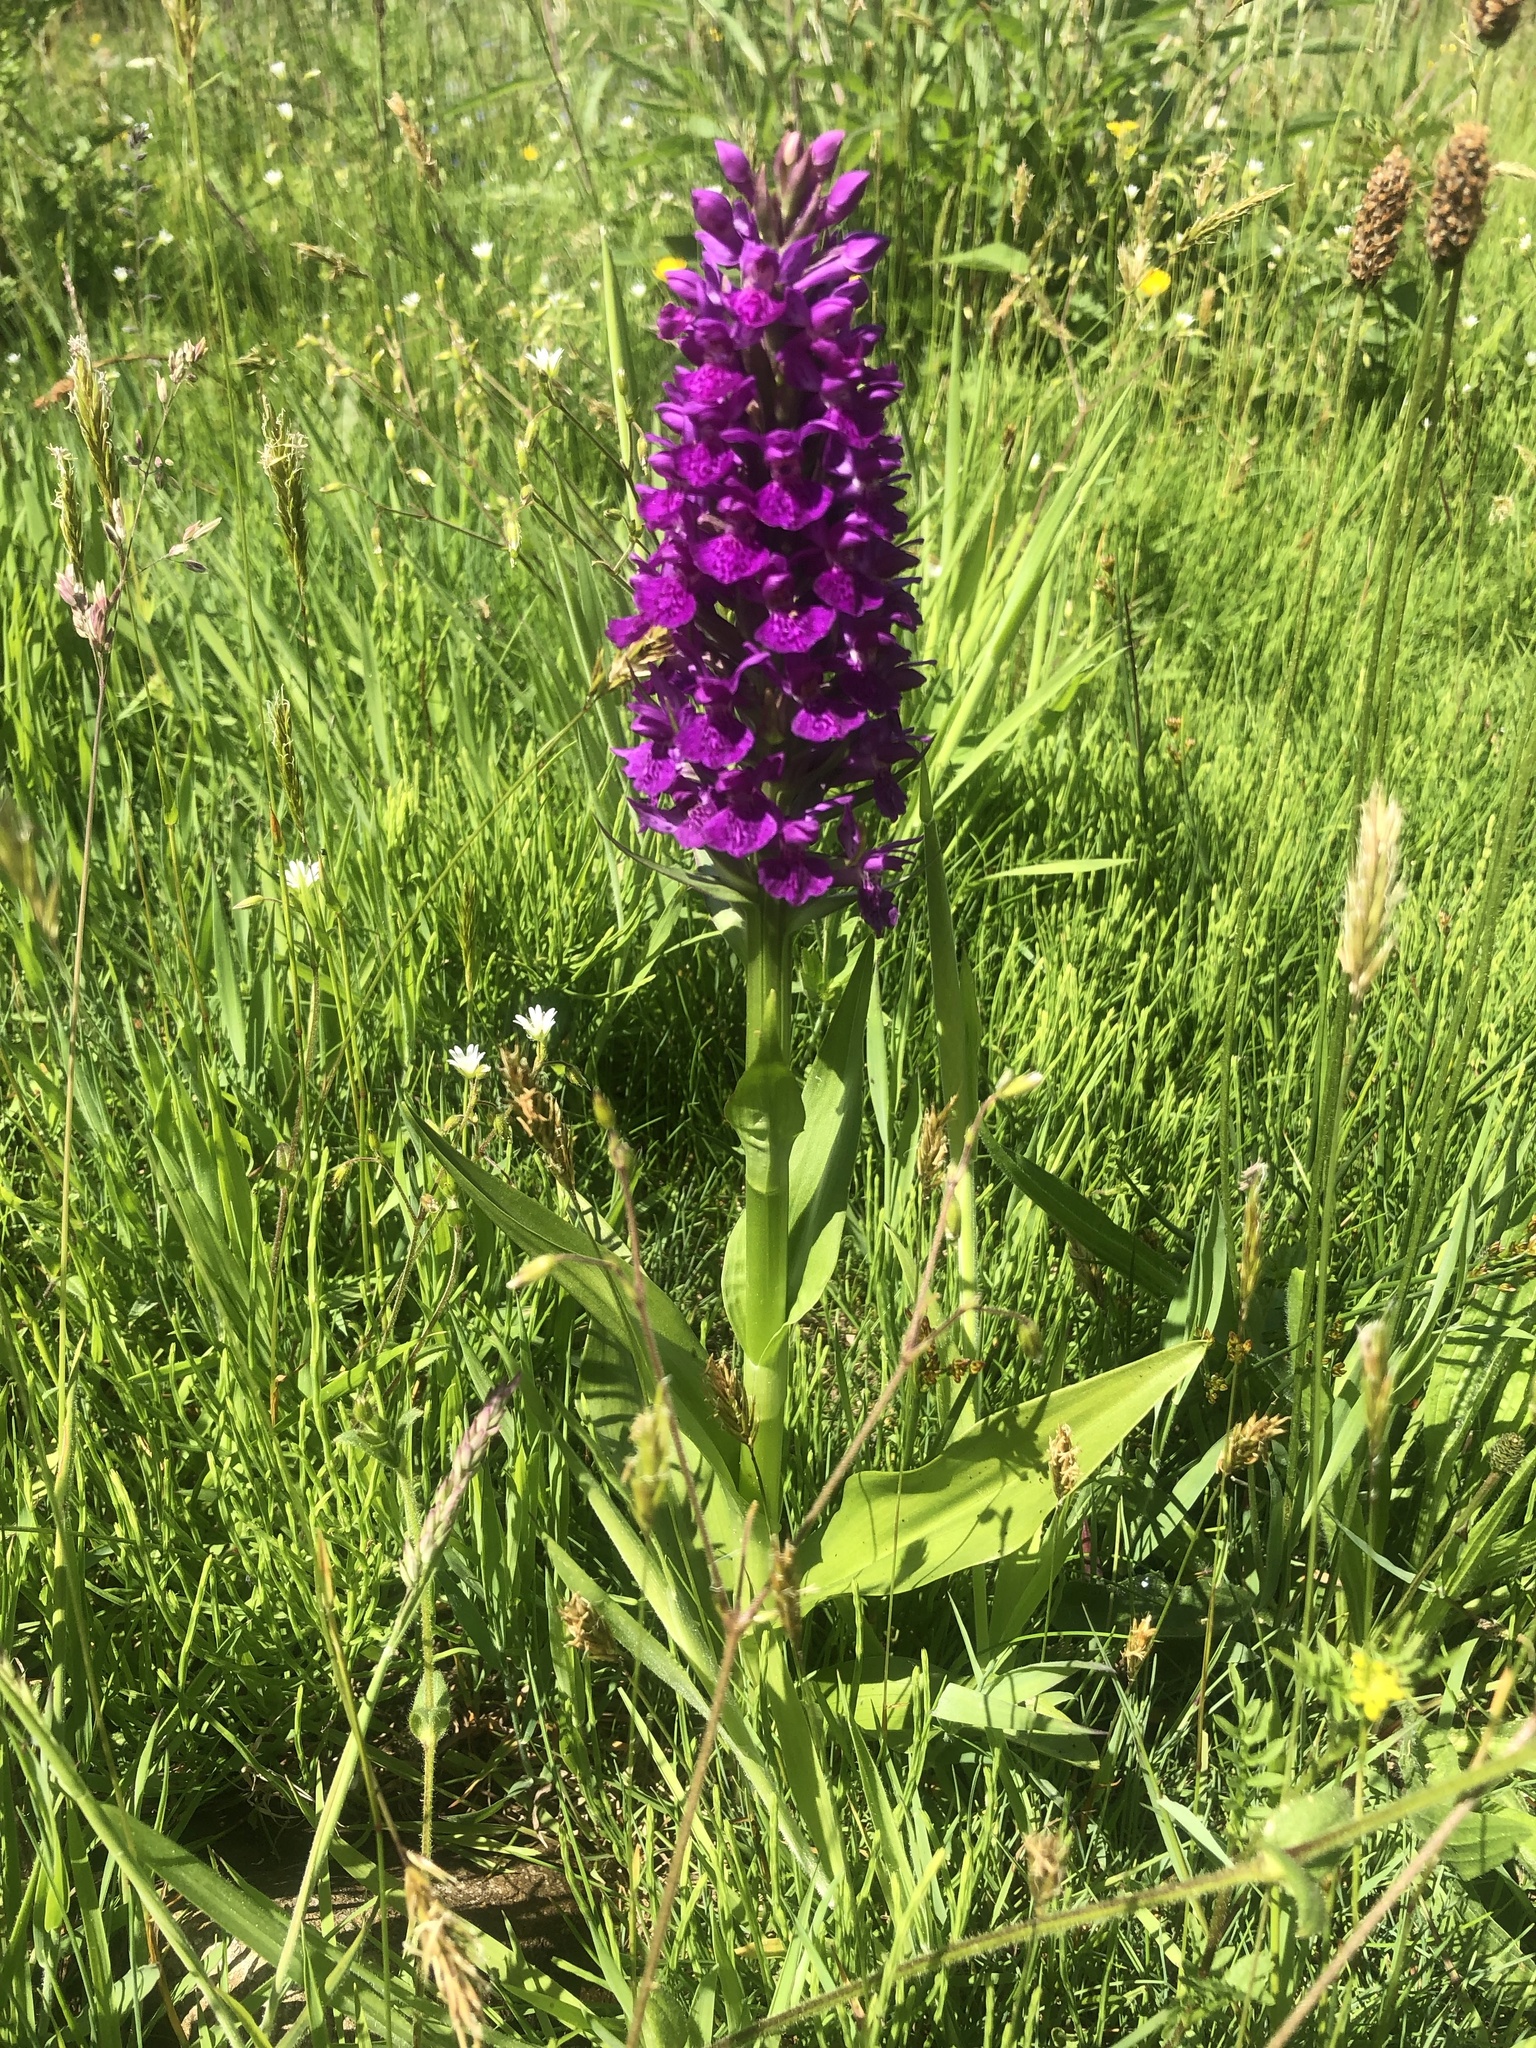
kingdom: Plantae
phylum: Tracheophyta
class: Liliopsida
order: Asparagales
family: Orchidaceae
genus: Dactylorhiza
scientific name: Dactylorhiza majalis
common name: Marsh orchid
